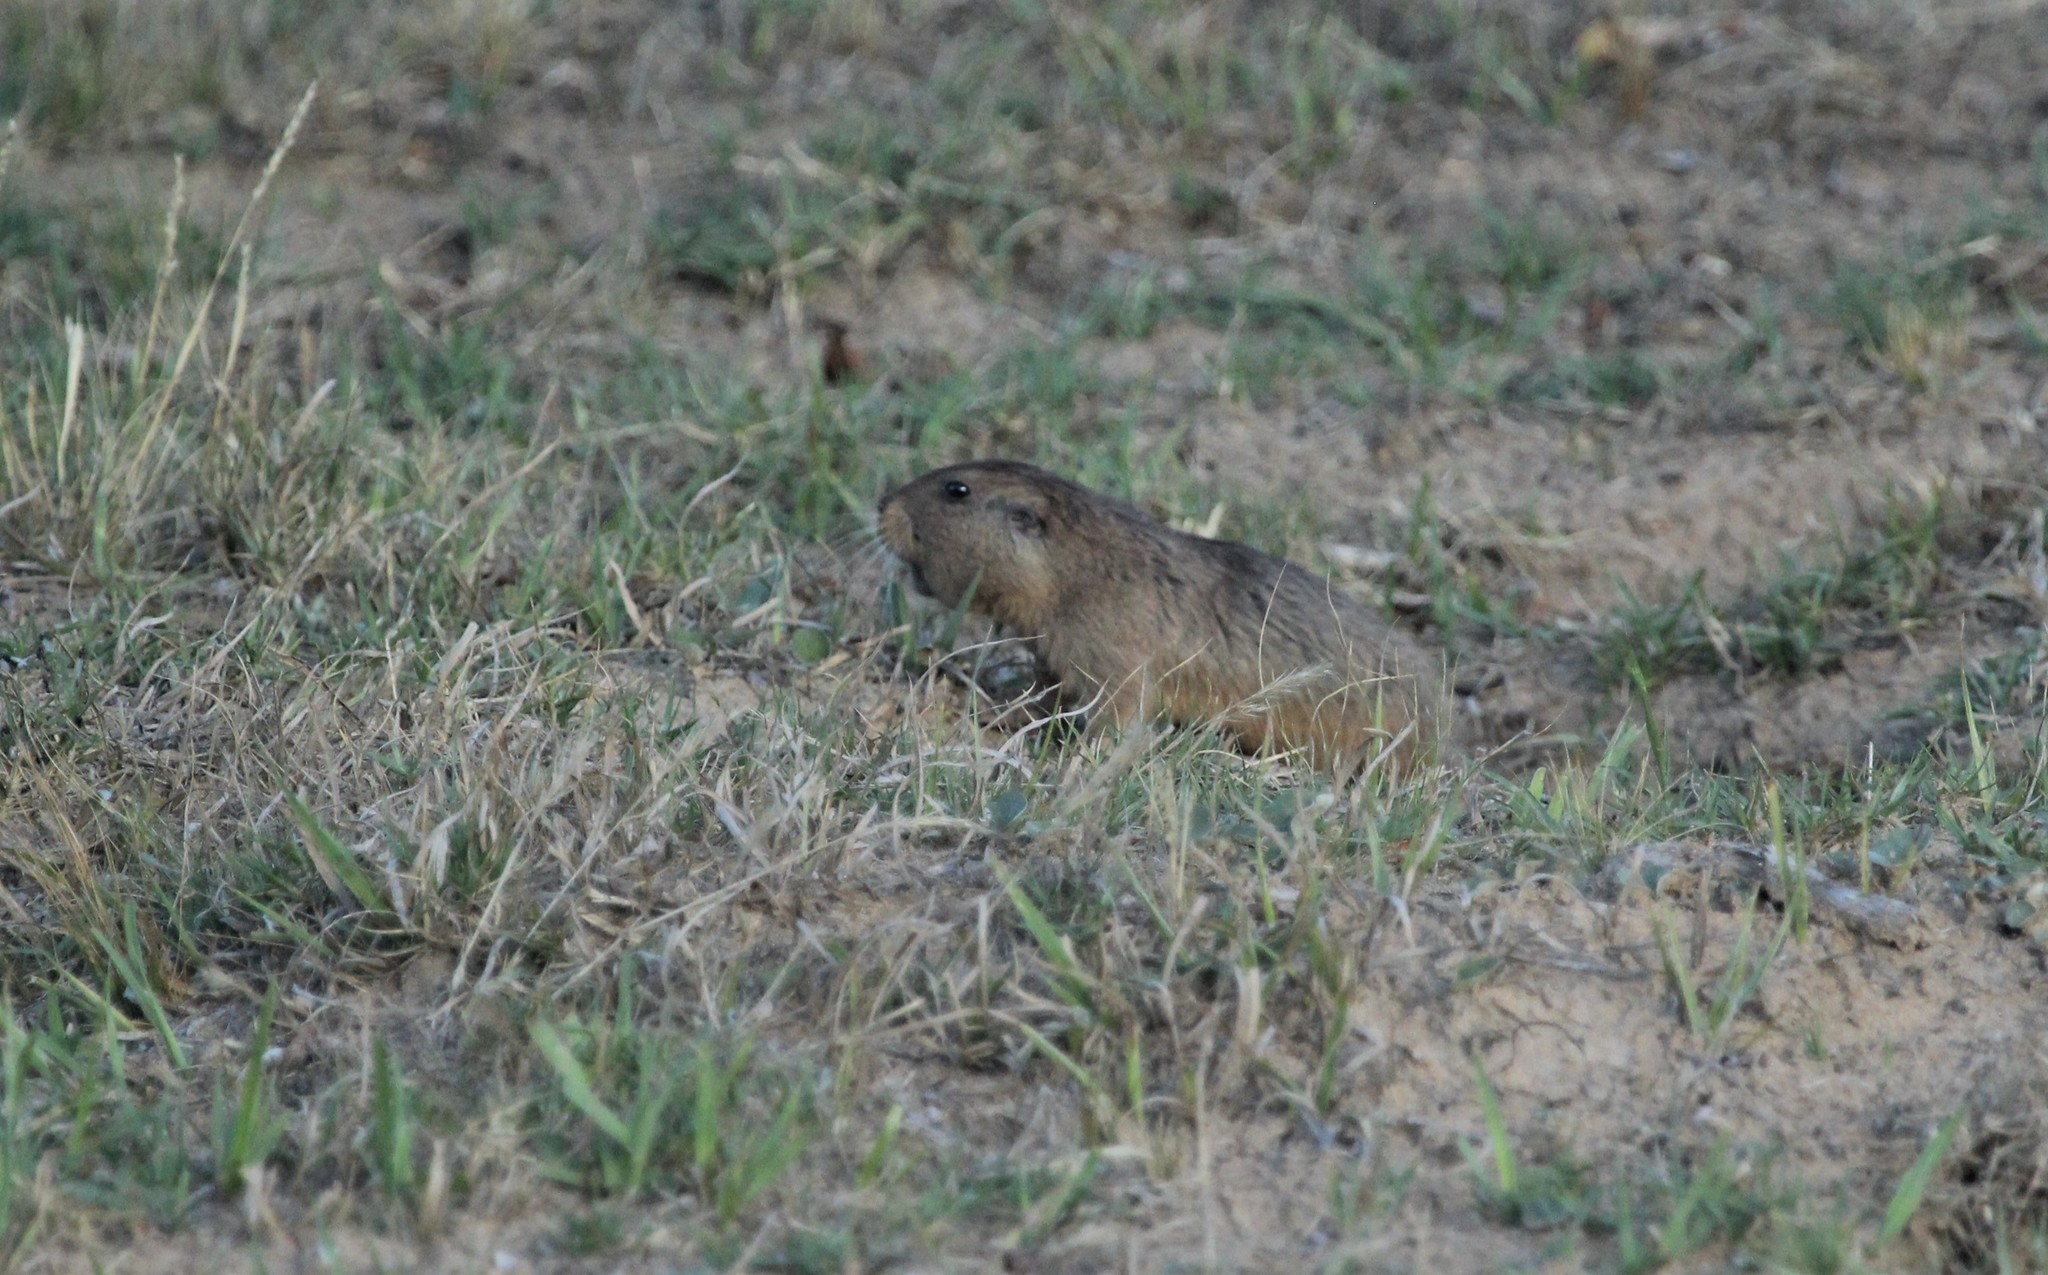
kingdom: Animalia
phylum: Chordata
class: Mammalia
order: Rodentia
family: Ctenomyidae
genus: Ctenomys
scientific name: Ctenomys pearsoni
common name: Pearson's tuco-tuco
